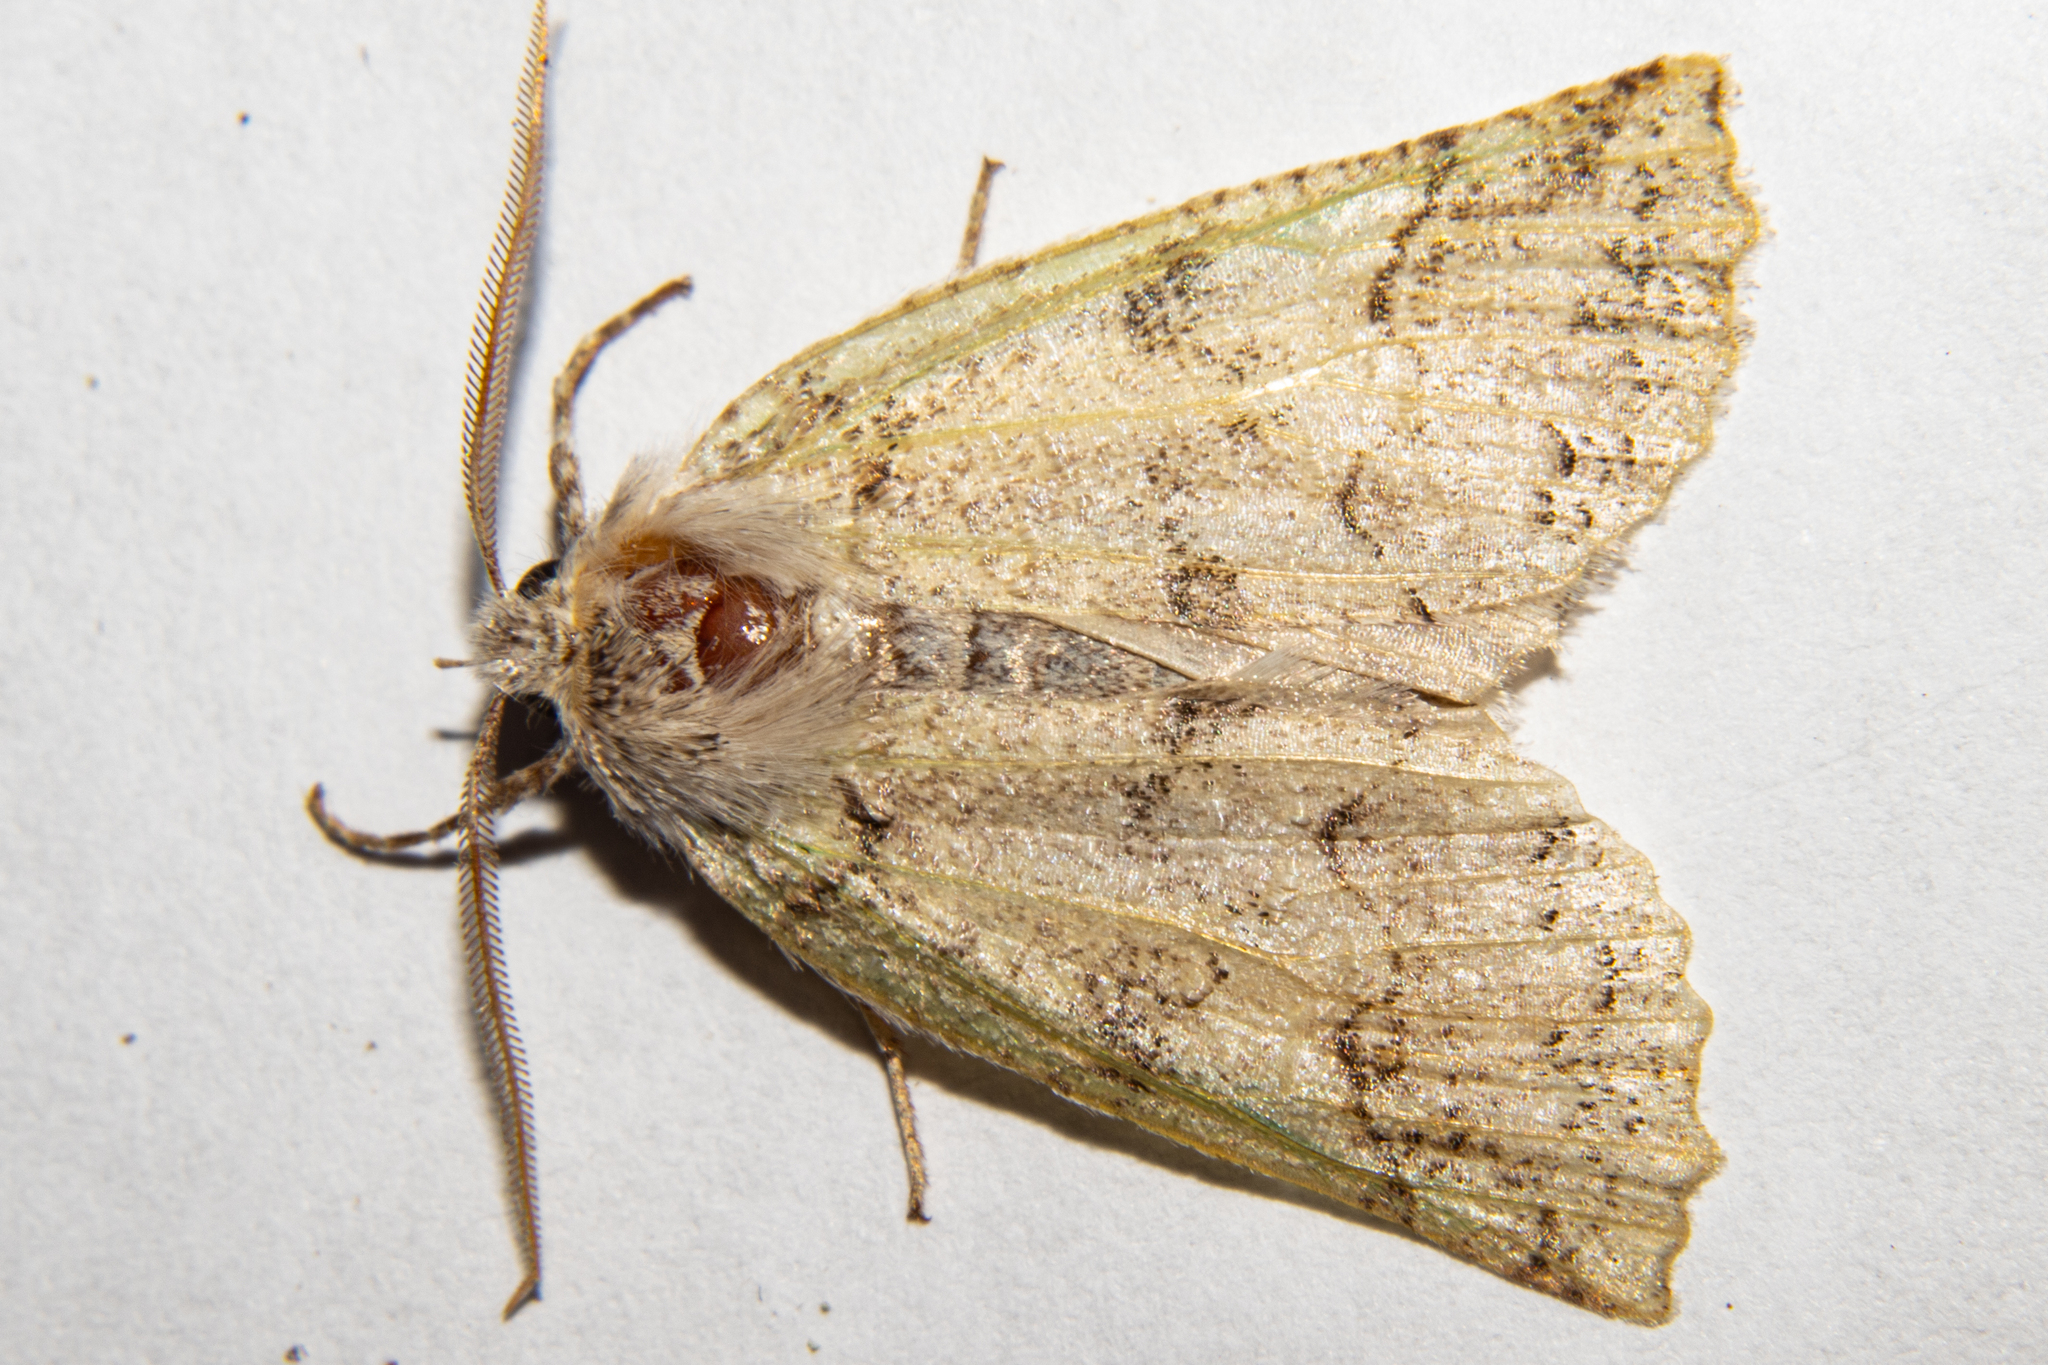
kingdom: Animalia
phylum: Arthropoda
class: Insecta
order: Lepidoptera
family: Geometridae
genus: Declana
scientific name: Declana floccosa
